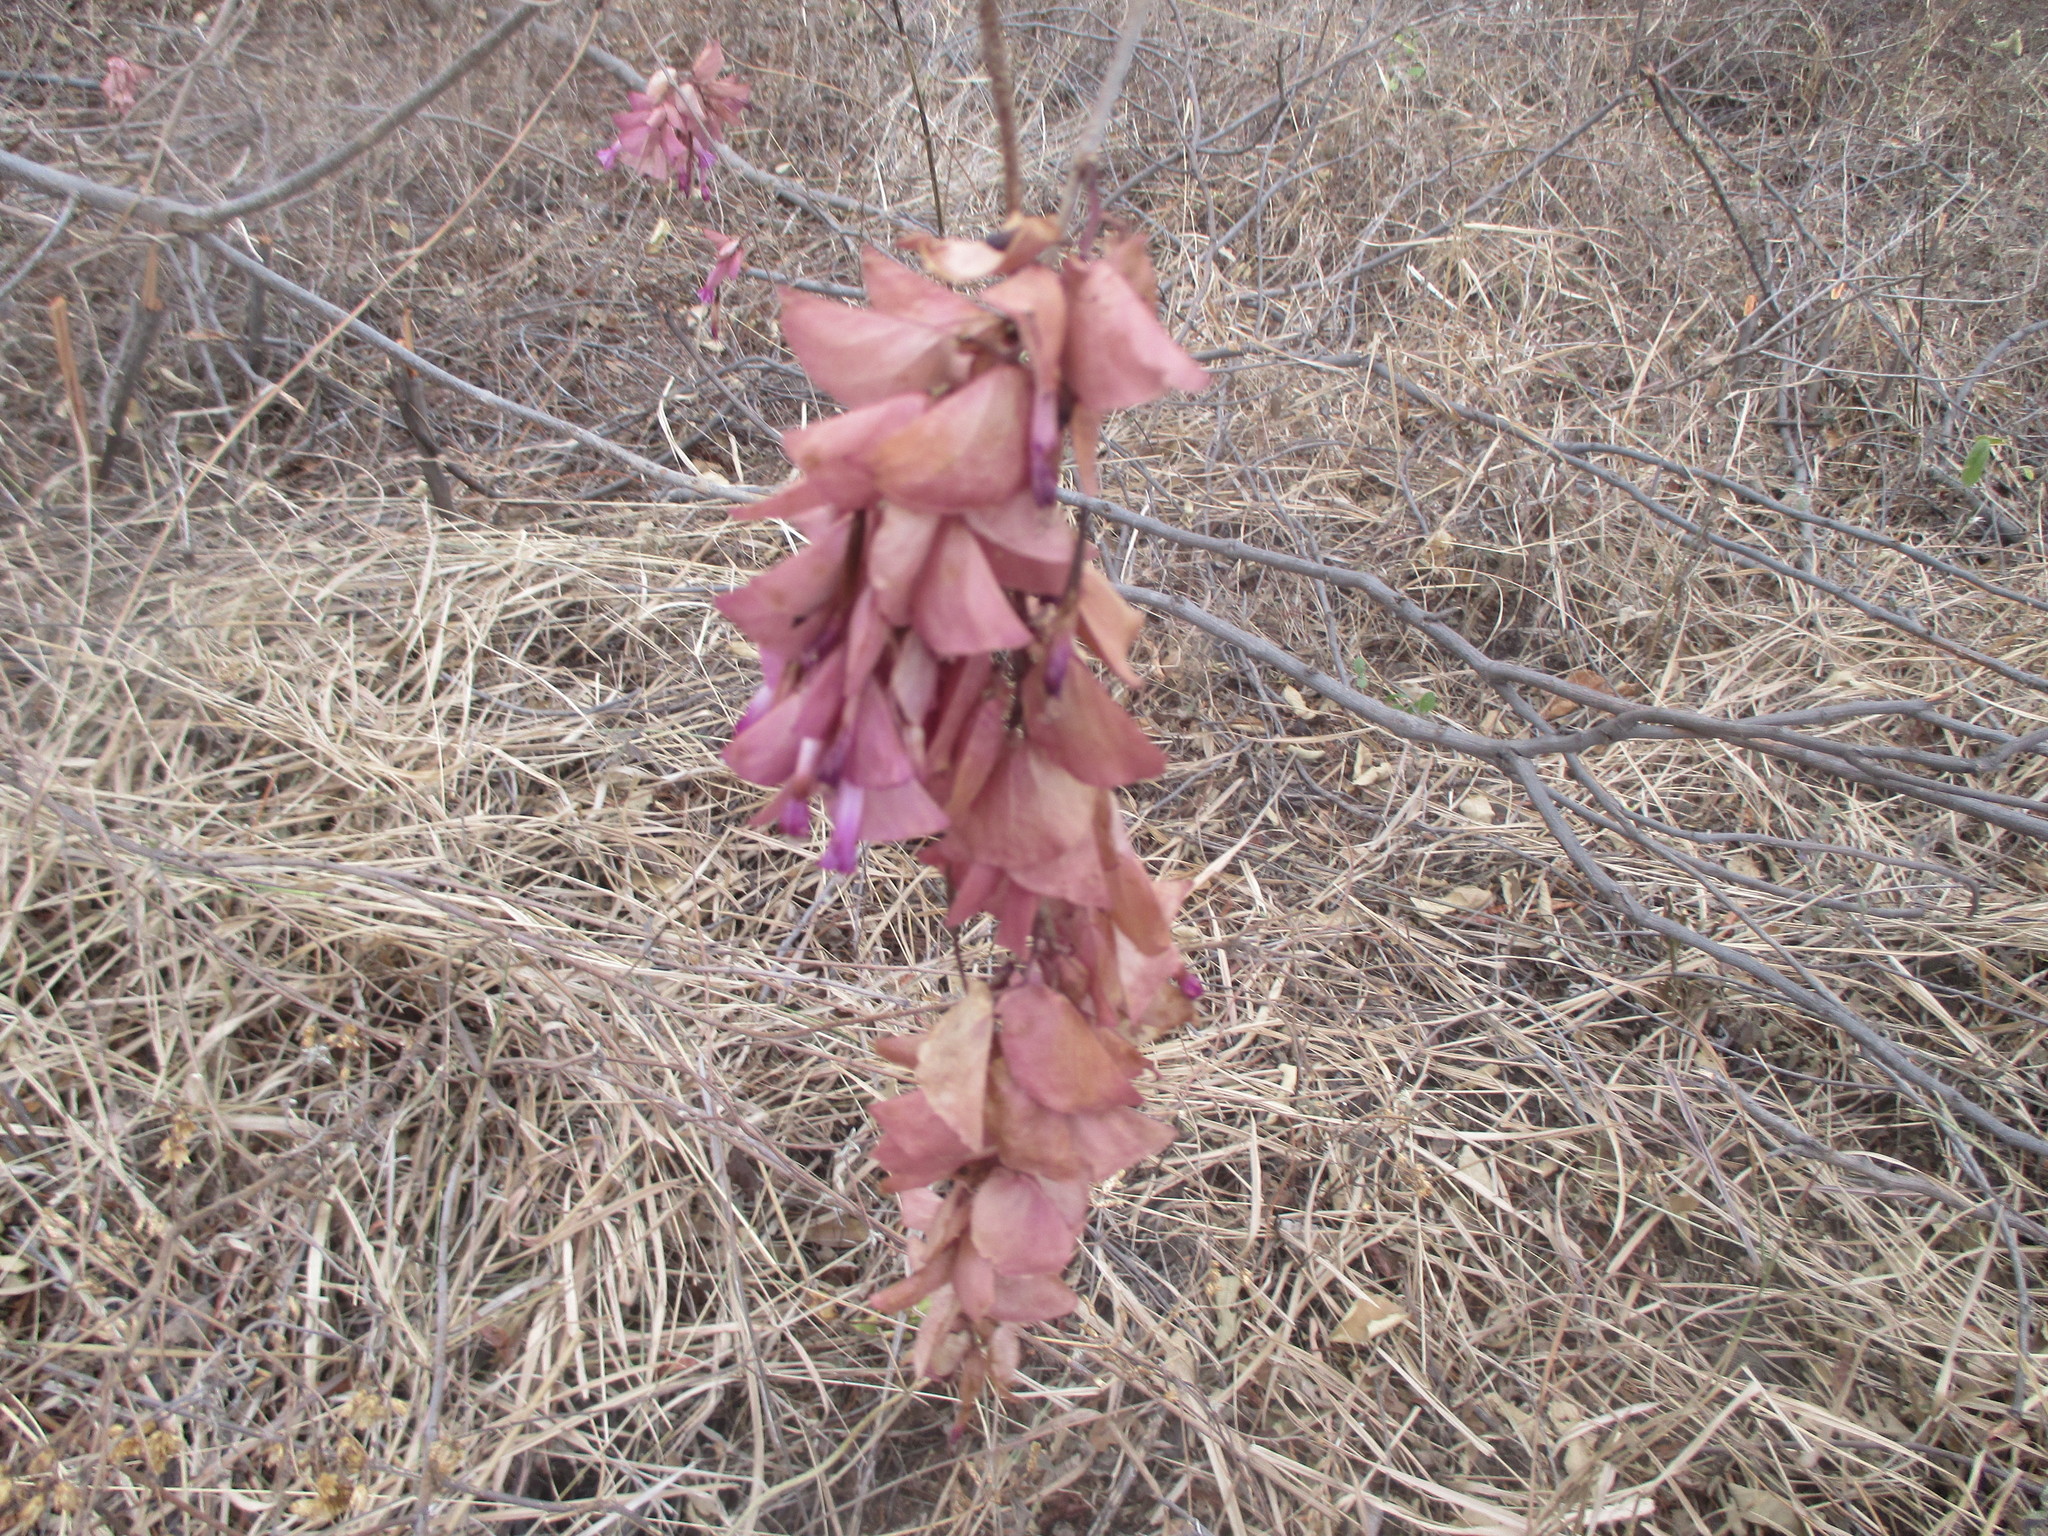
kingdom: Plantae
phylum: Tracheophyta
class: Magnoliopsida
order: Solanales
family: Convolvulaceae
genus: Ipomoea
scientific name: Ipomoea bracteata
